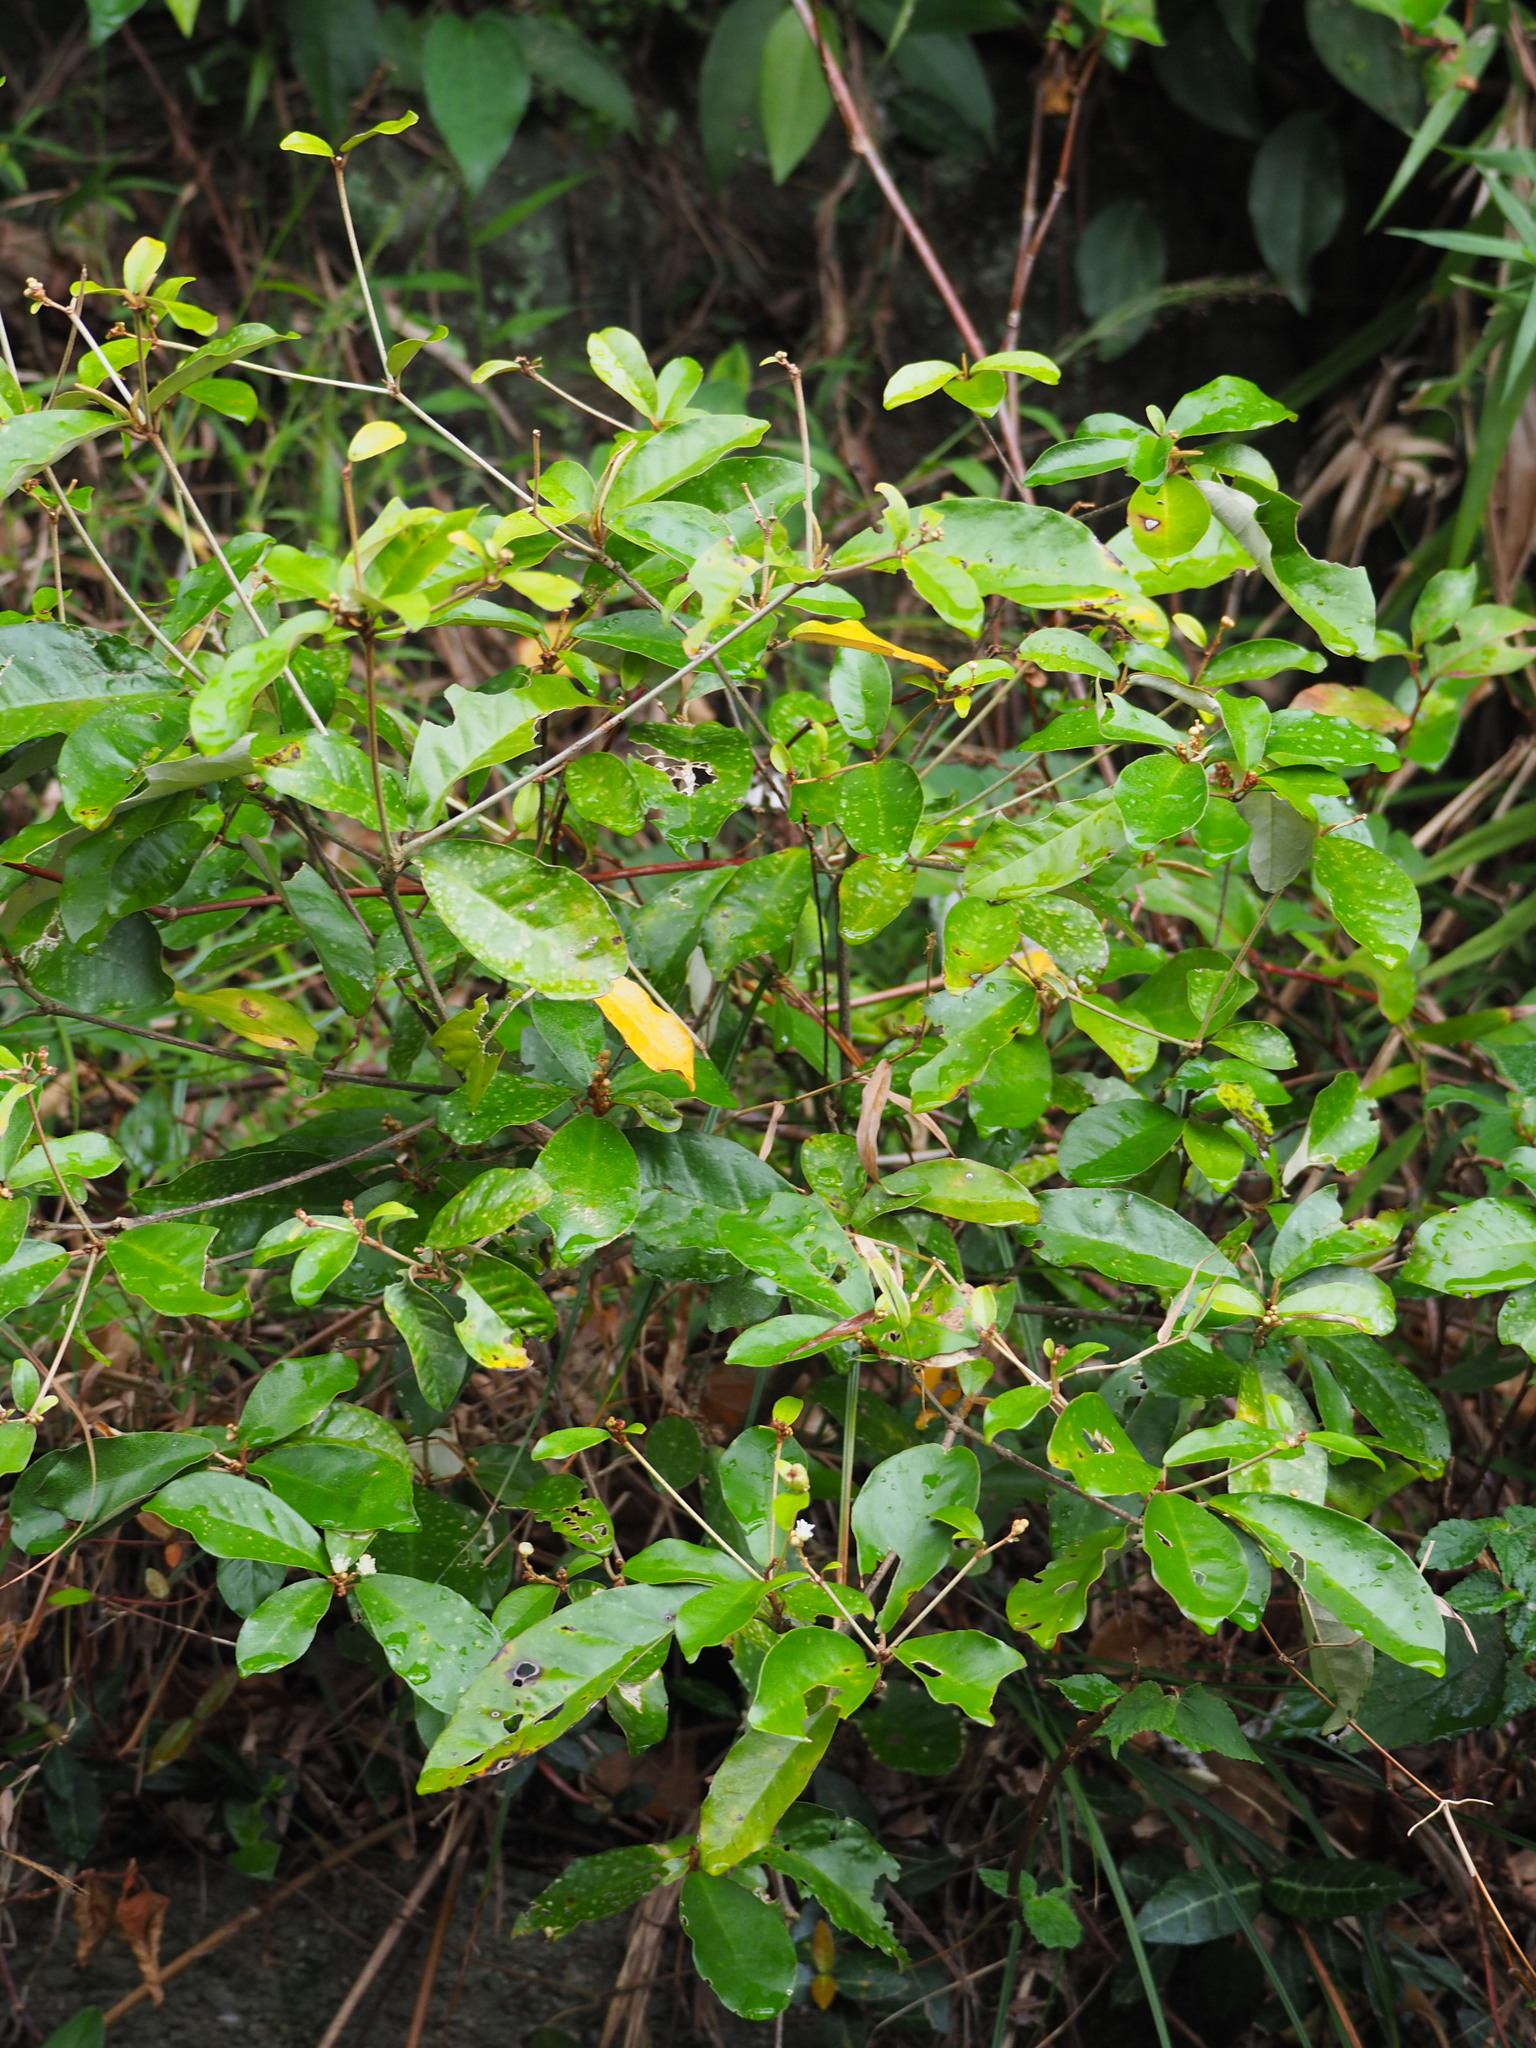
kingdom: Plantae
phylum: Tracheophyta
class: Magnoliopsida
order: Malpighiales
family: Euphorbiaceae
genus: Croton
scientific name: Croton cascarilloides
